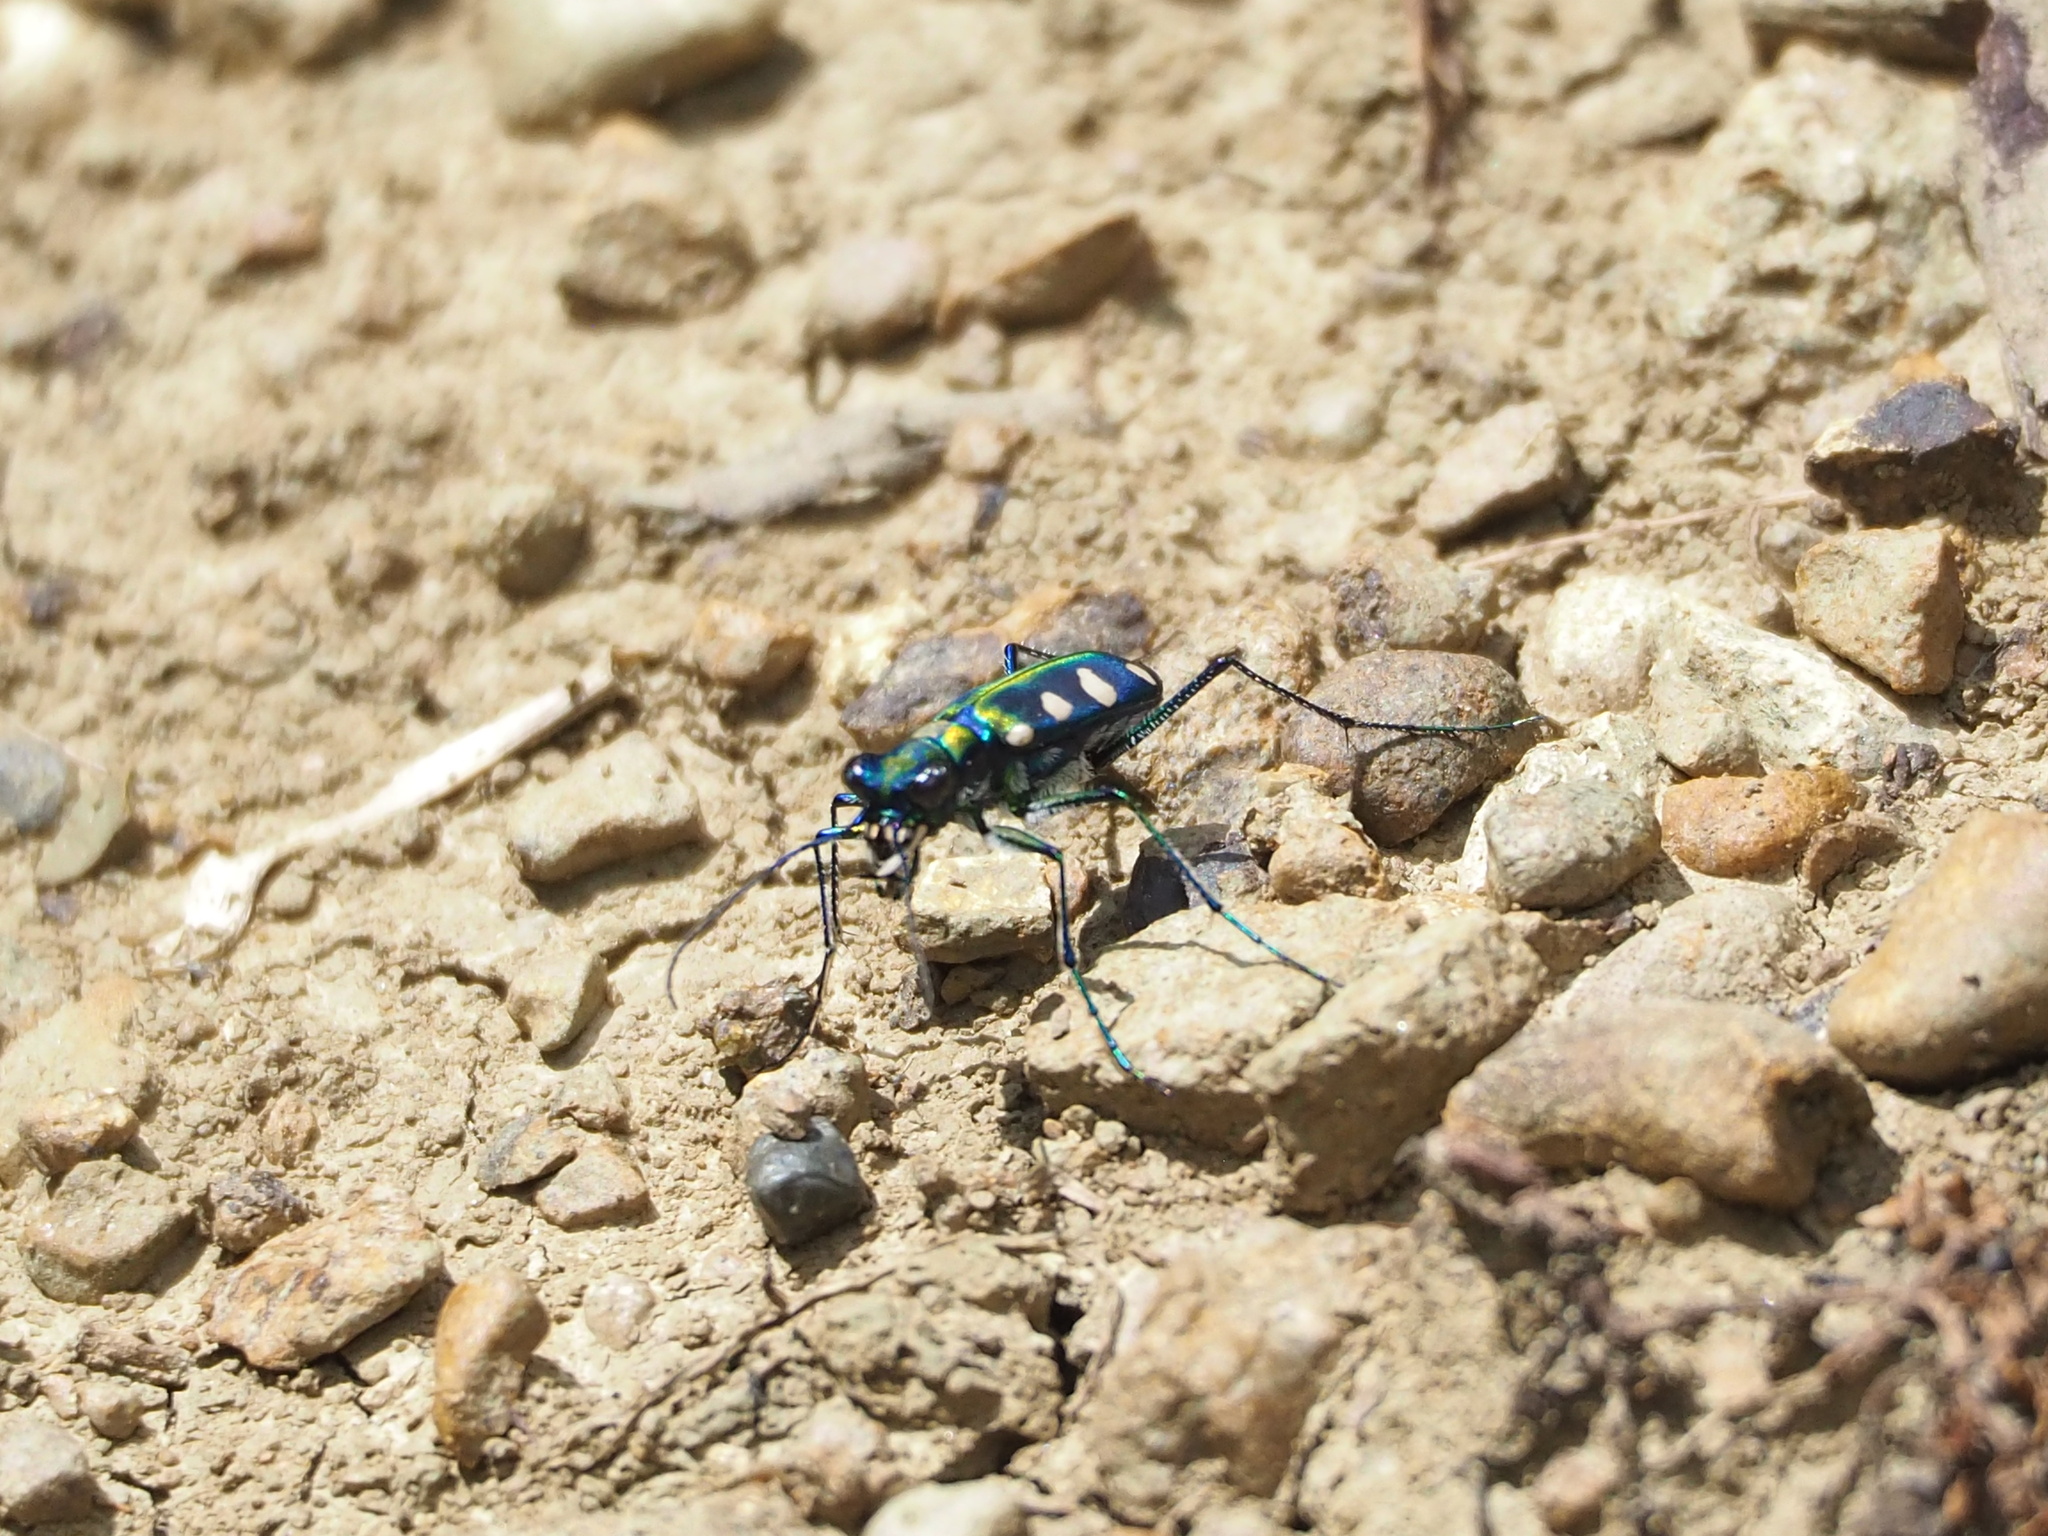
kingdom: Animalia
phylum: Arthropoda
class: Insecta
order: Coleoptera
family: Carabidae
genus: Cicindela
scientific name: Cicindela batesi
